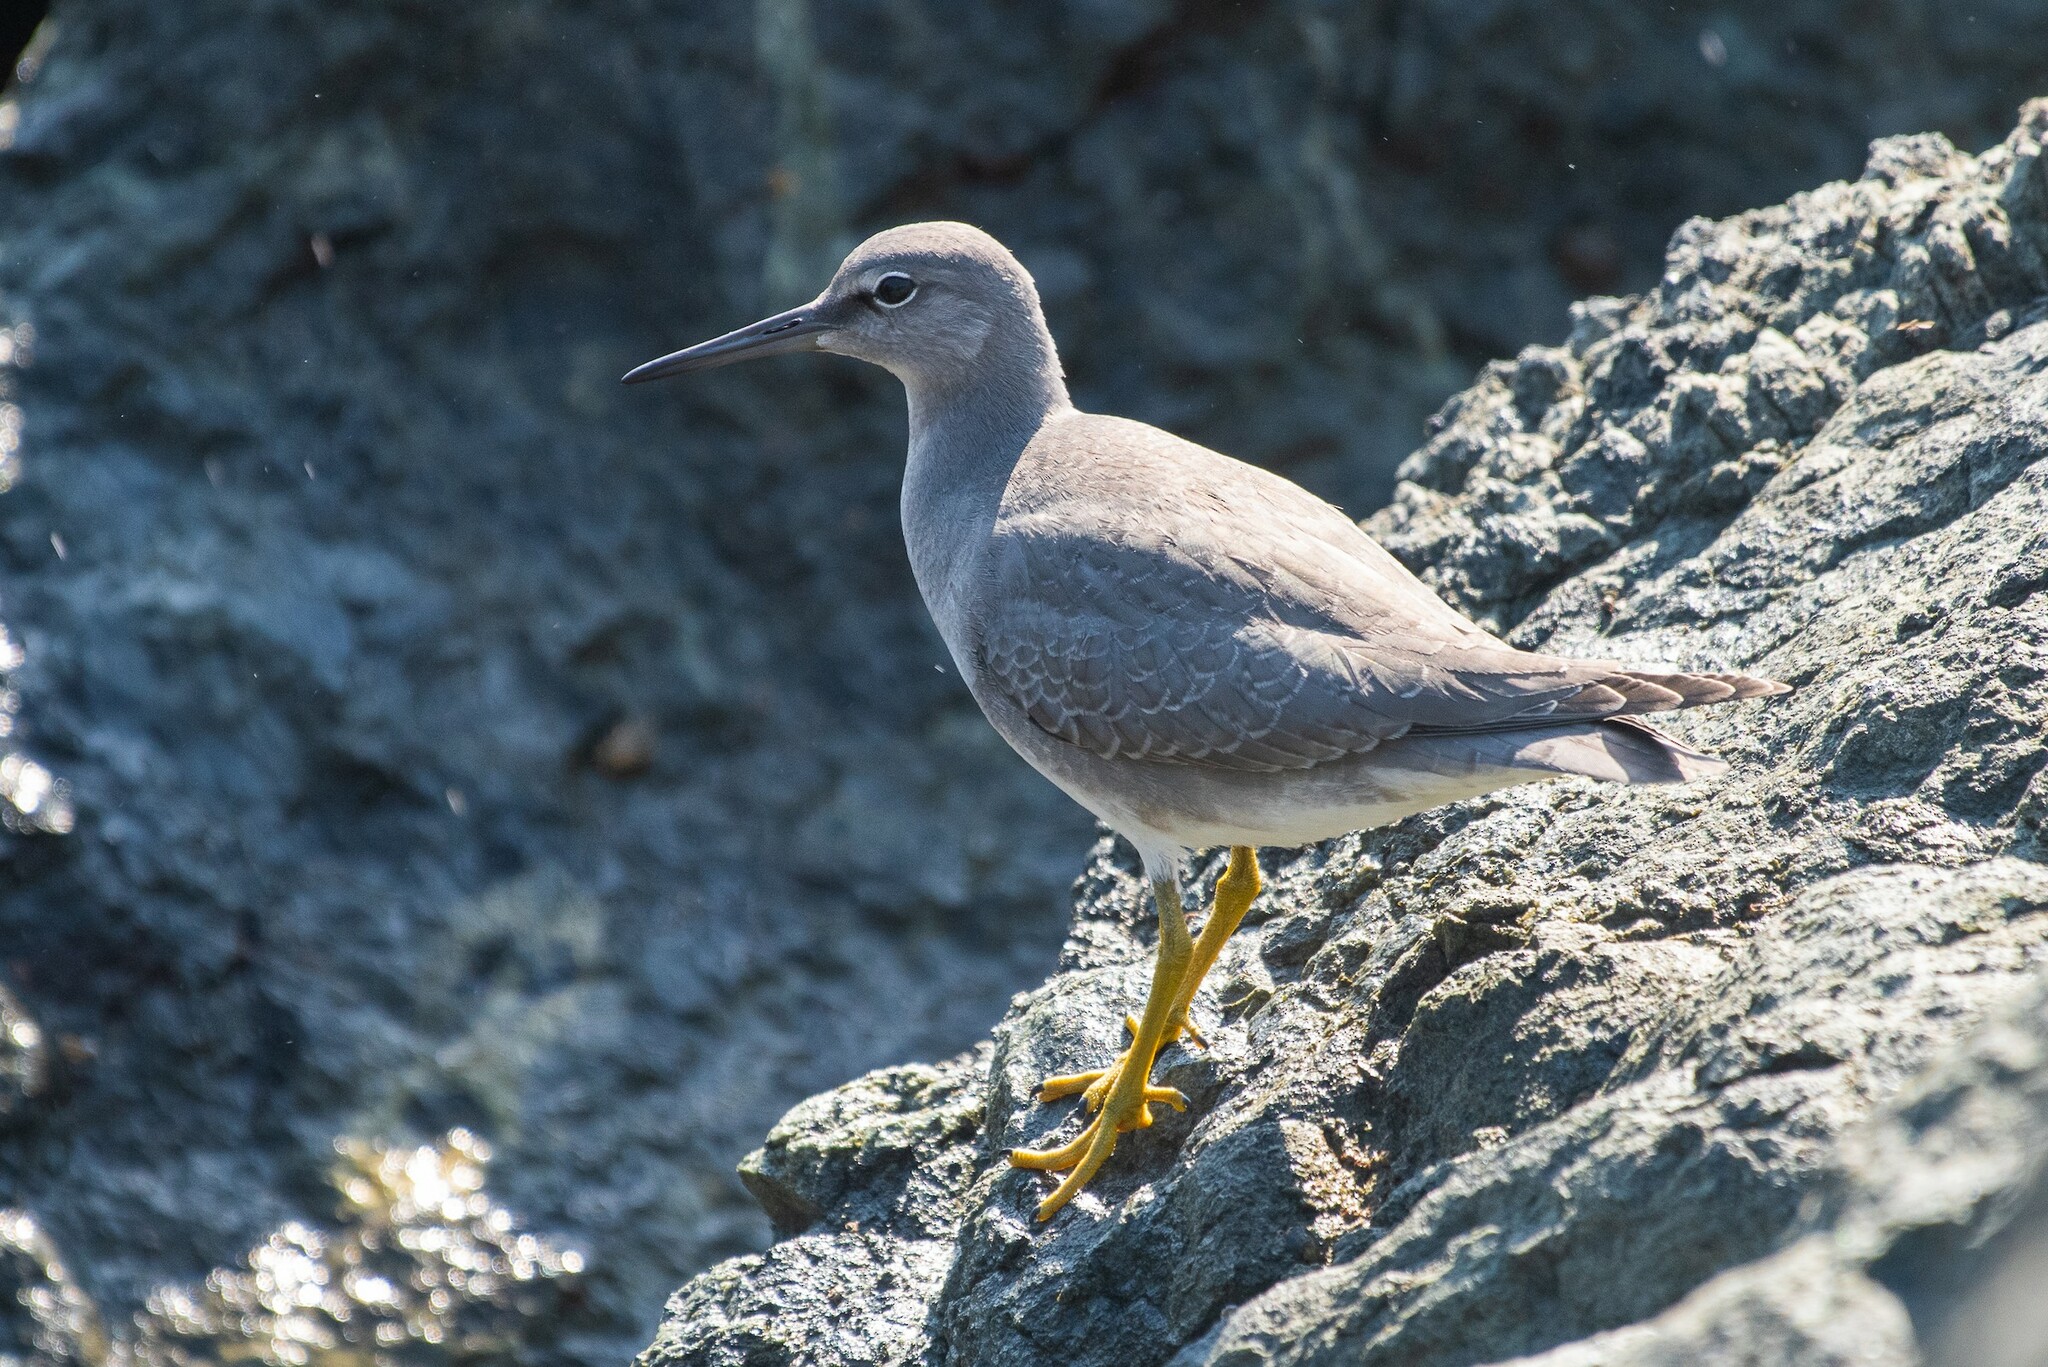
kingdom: Animalia
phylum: Chordata
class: Aves
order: Charadriiformes
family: Scolopacidae
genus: Tringa
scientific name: Tringa incana
